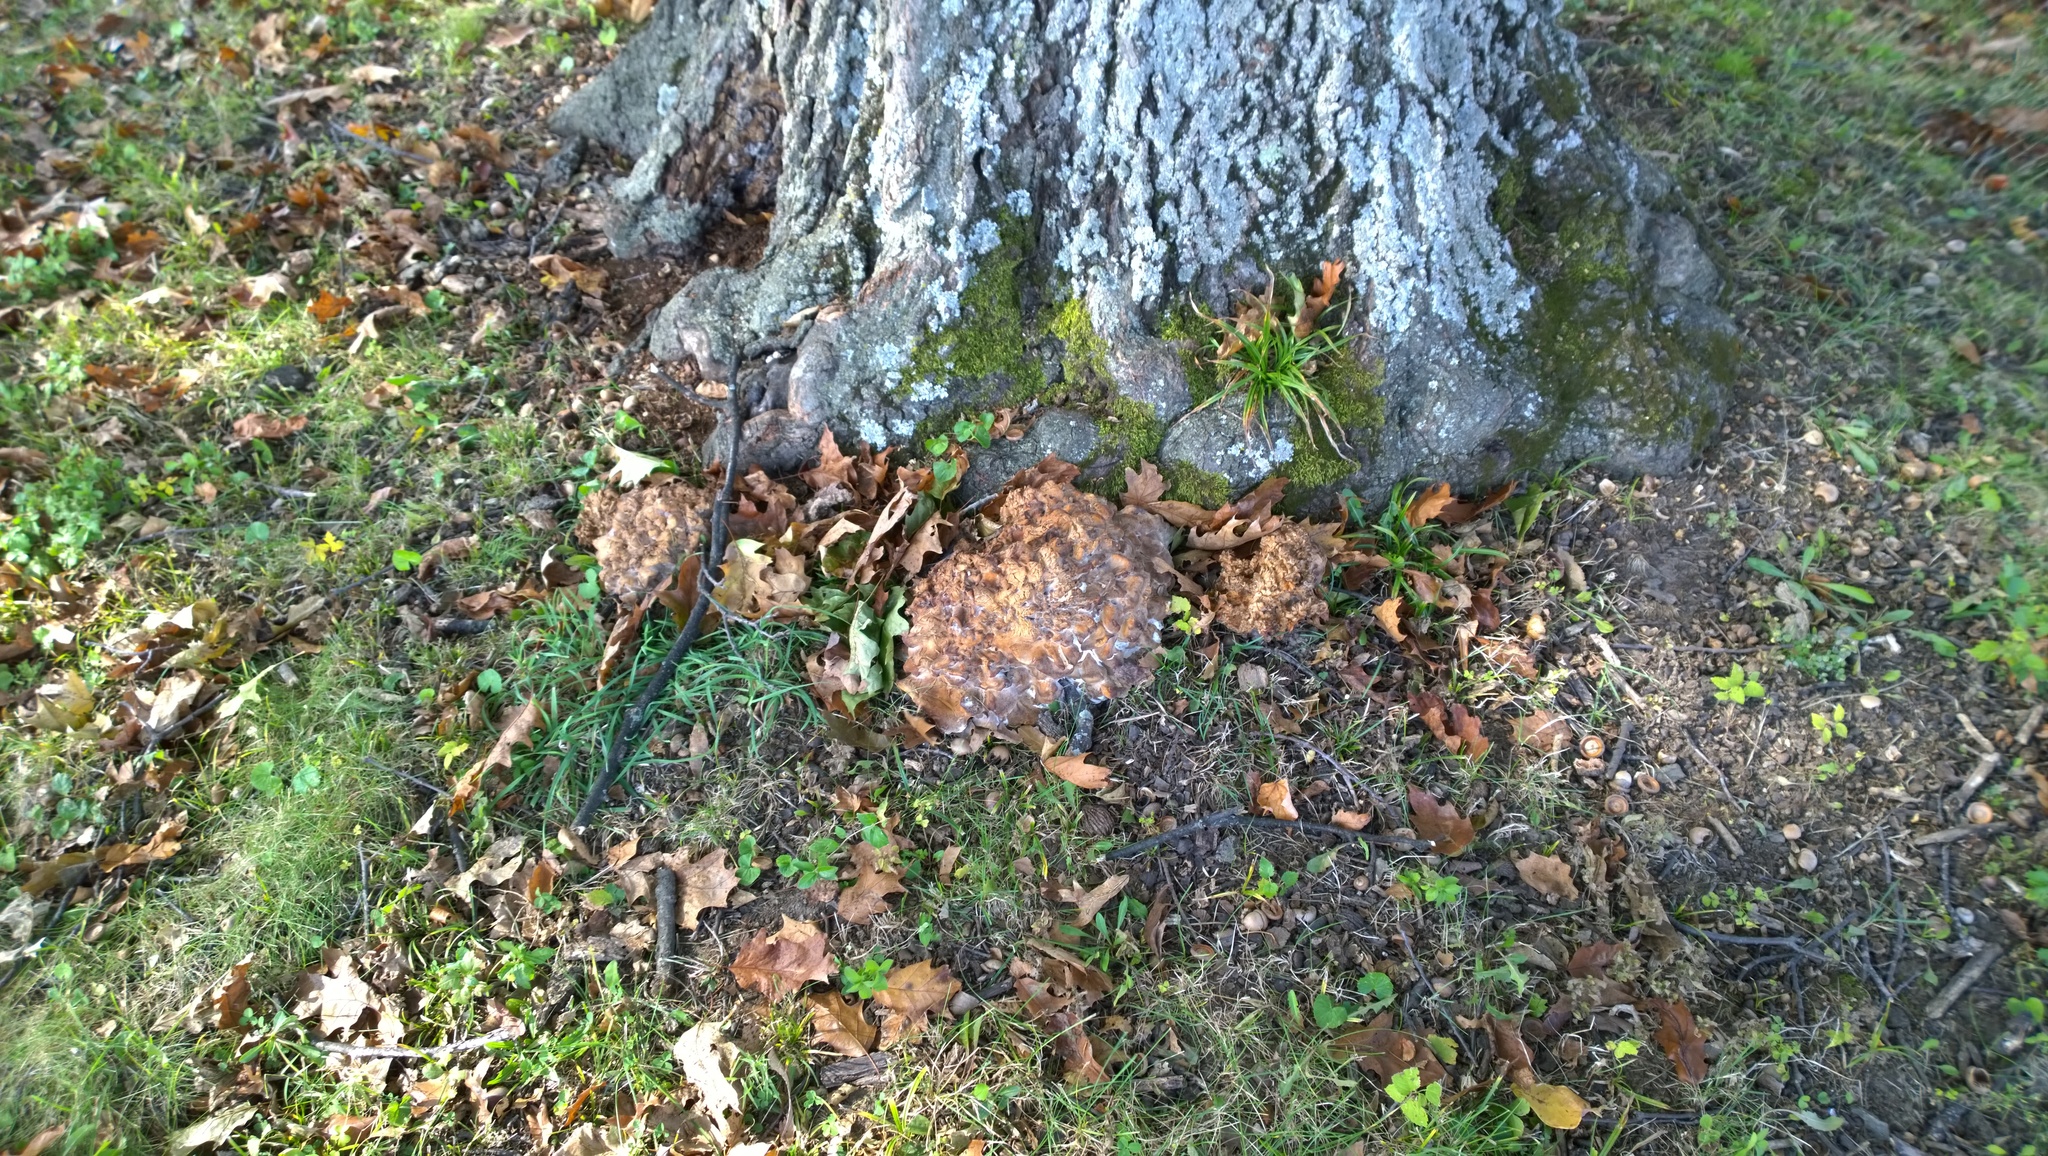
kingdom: Fungi
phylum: Basidiomycota
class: Agaricomycetes
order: Polyporales
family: Grifolaceae
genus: Grifola
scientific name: Grifola frondosa
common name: Hen of the woods
